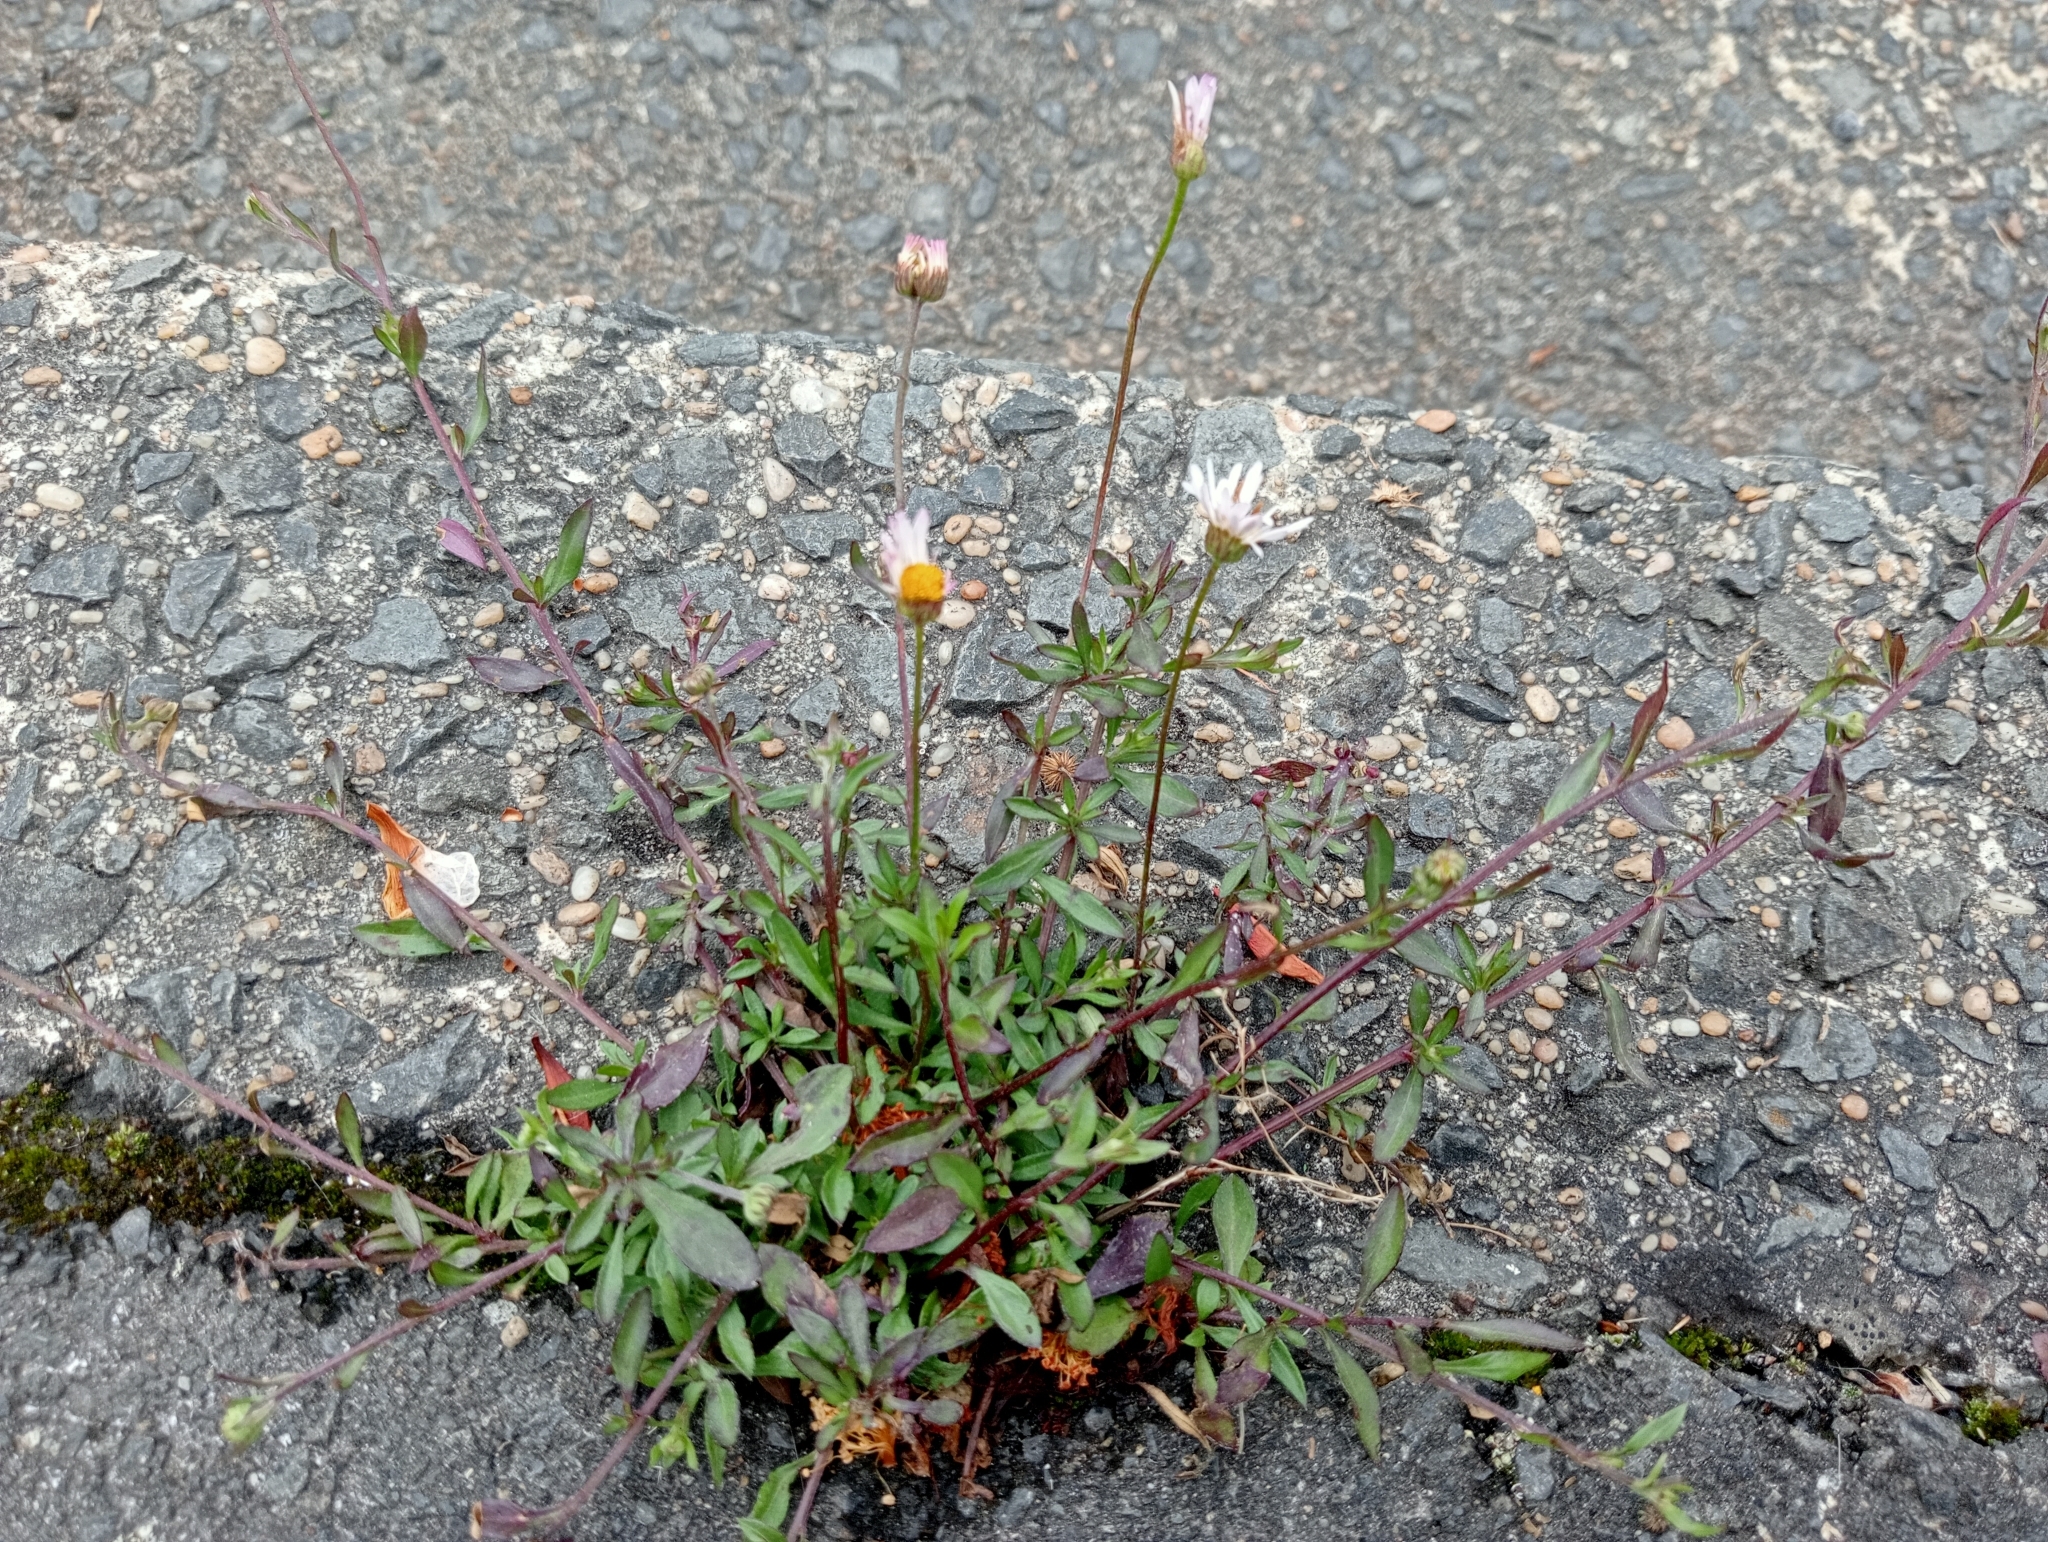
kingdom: Plantae
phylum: Tracheophyta
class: Magnoliopsida
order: Asterales
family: Asteraceae
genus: Erigeron
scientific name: Erigeron karvinskianus
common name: Mexican fleabane
